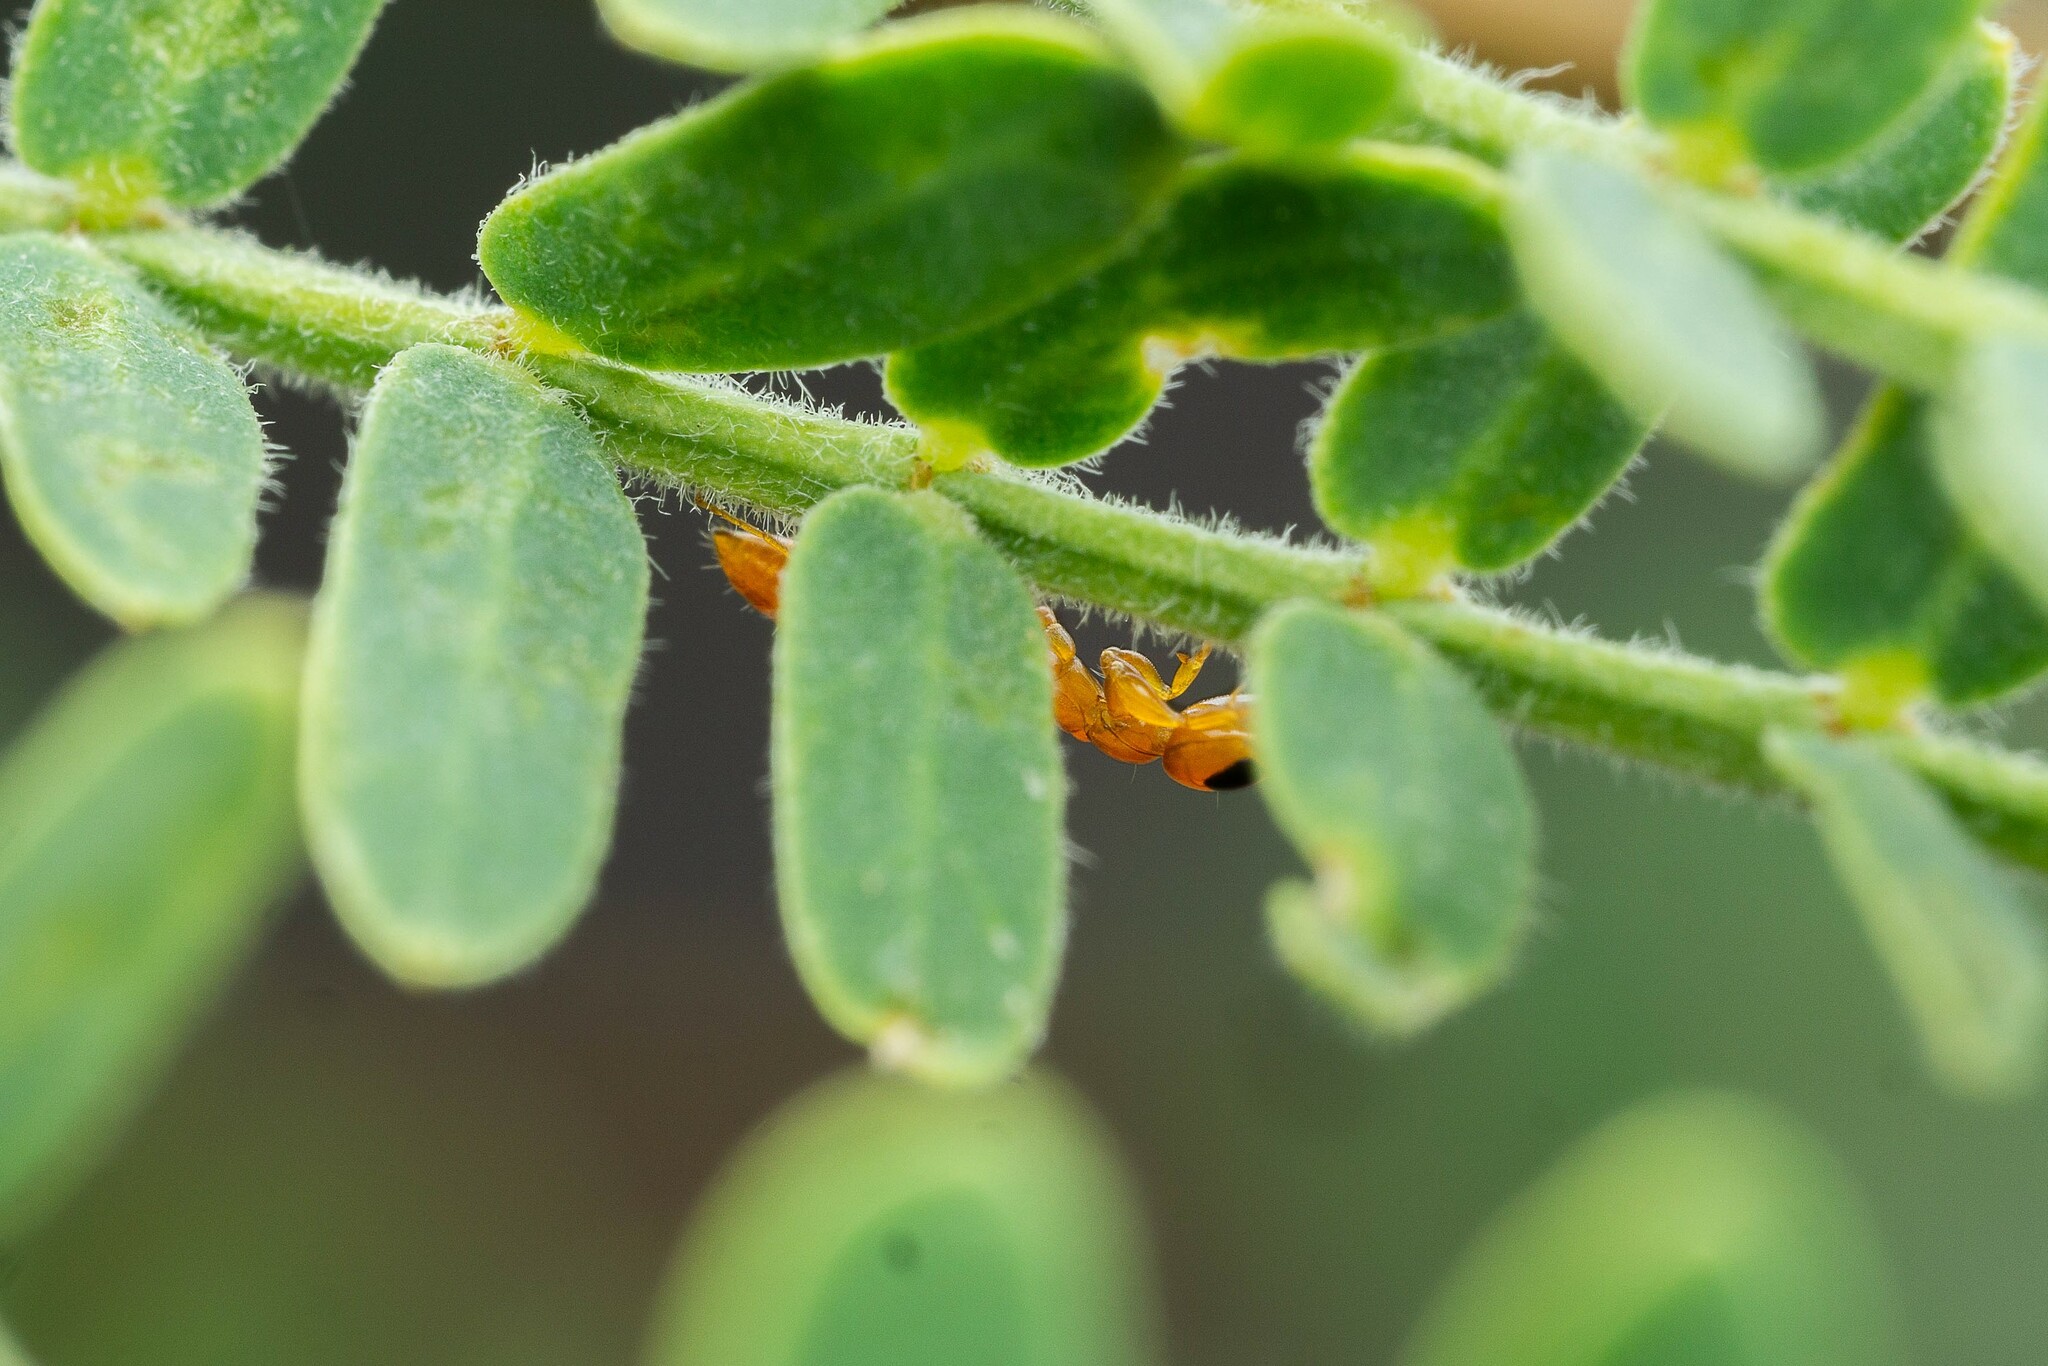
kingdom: Animalia
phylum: Arthropoda
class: Insecta
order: Hymenoptera
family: Formicidae
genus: Pseudomyrmex
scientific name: Pseudomyrmex pallidus
